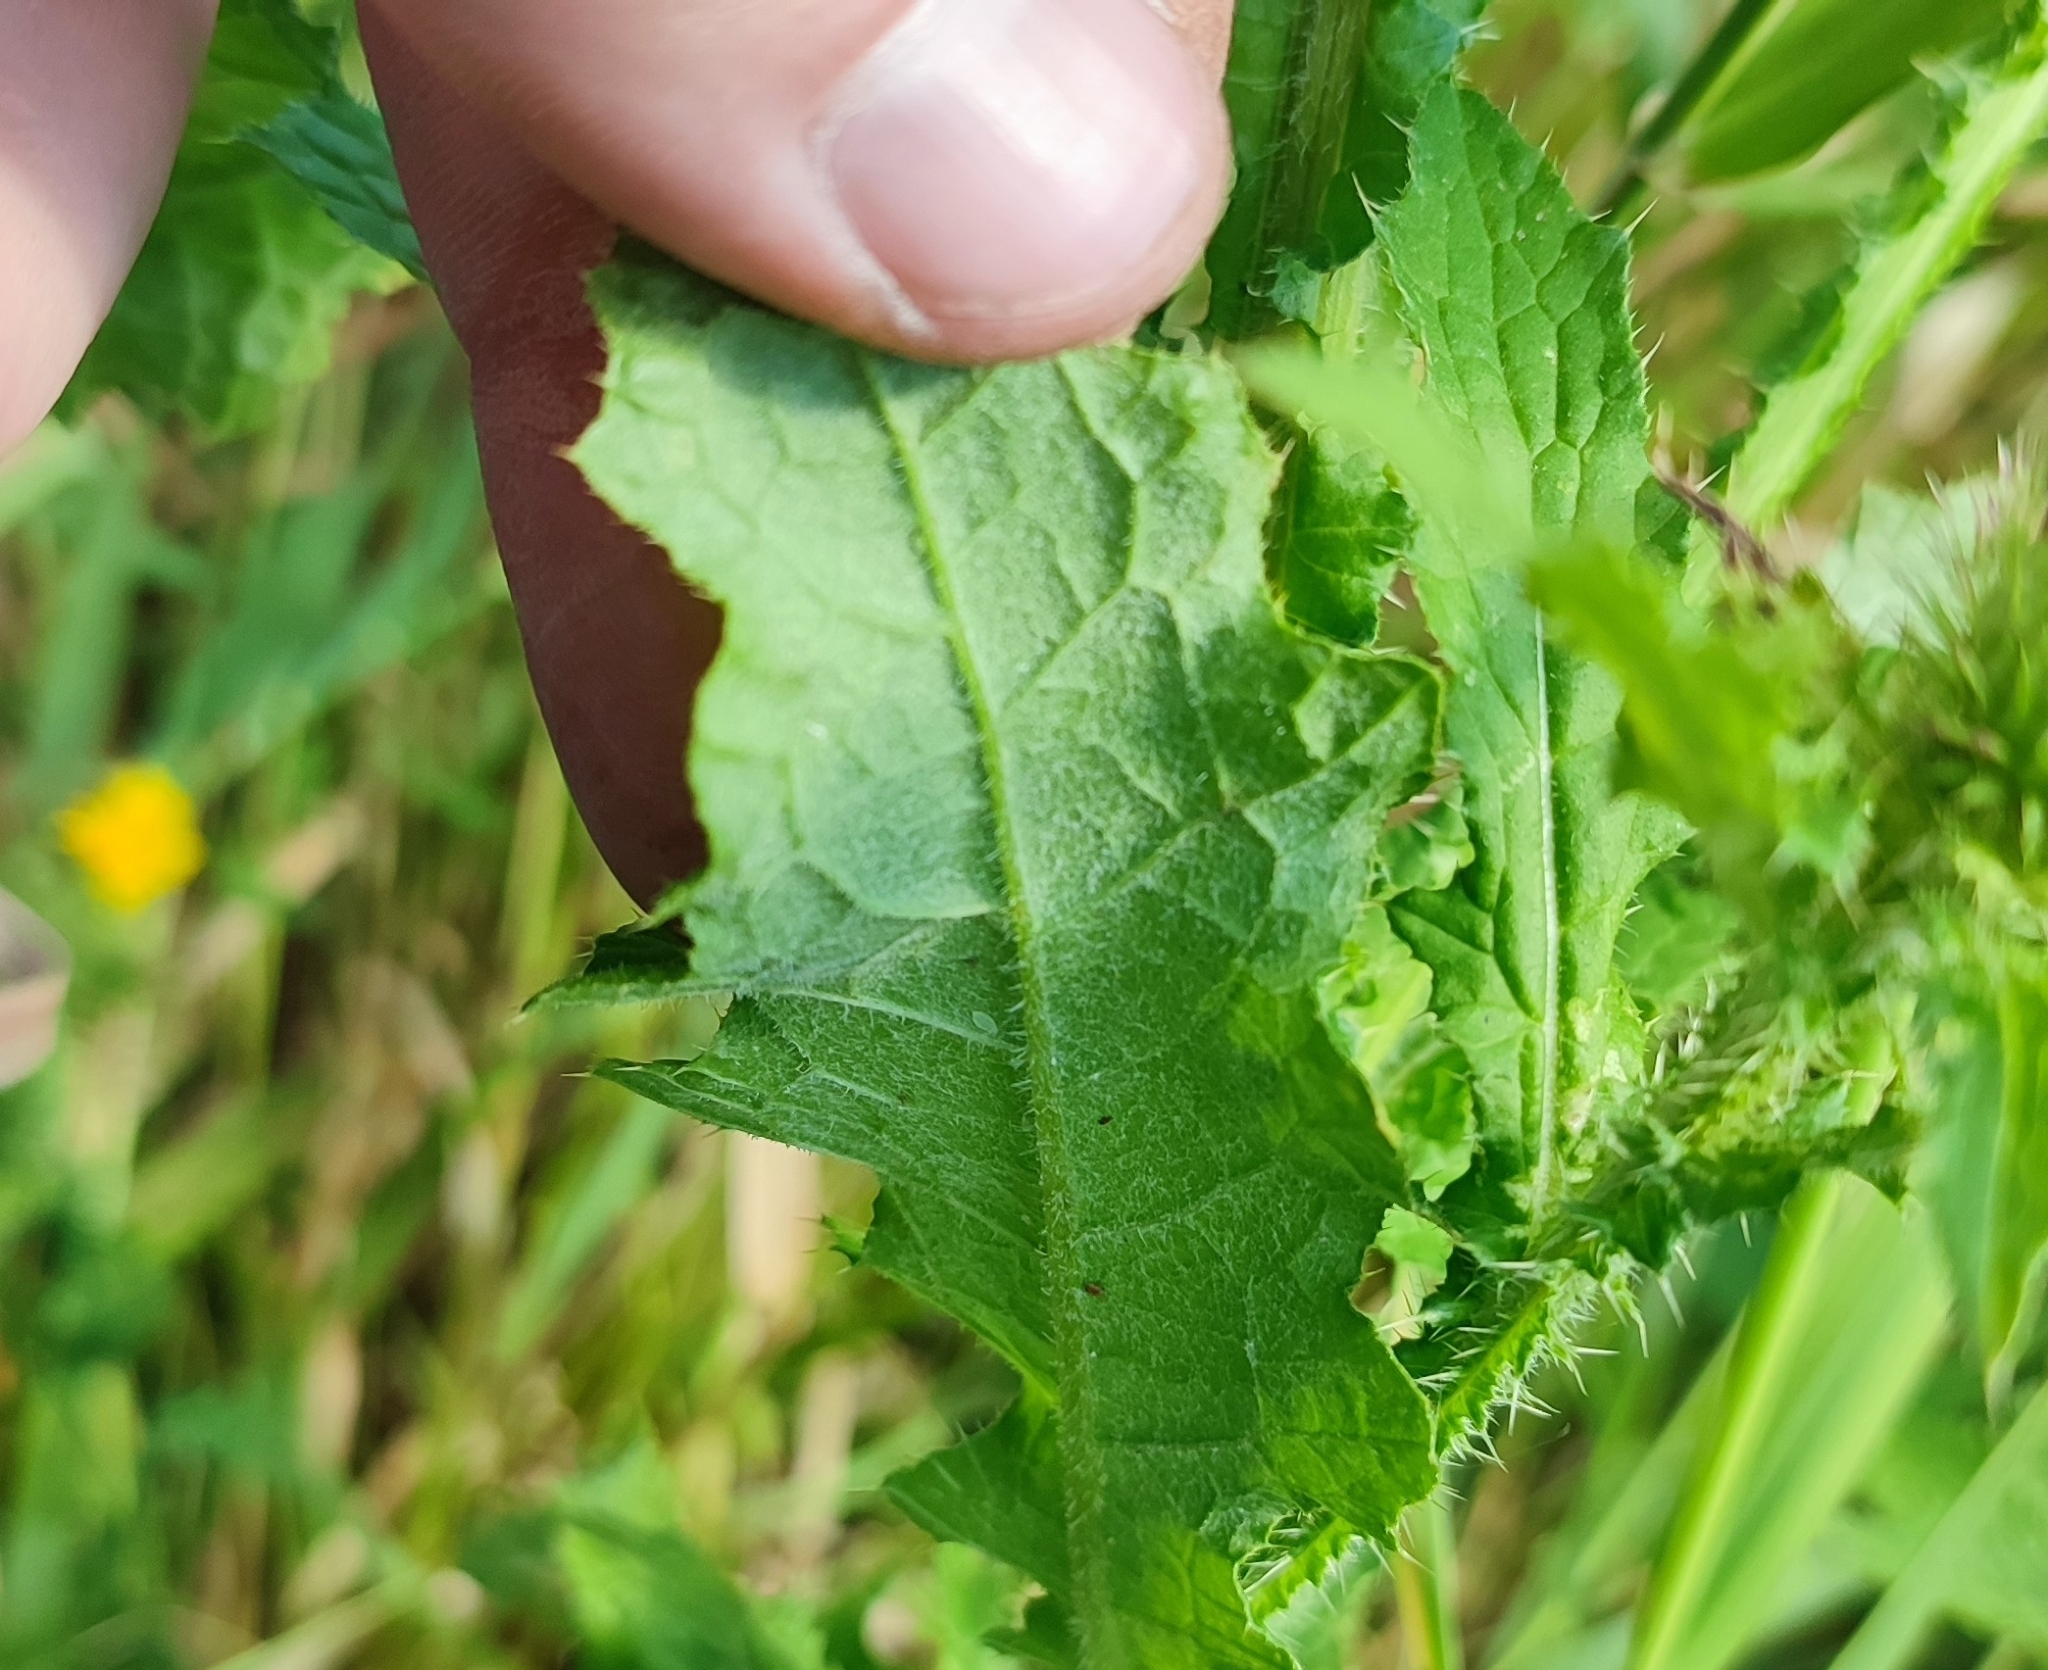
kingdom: Plantae
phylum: Tracheophyta
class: Magnoliopsida
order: Asterales
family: Asteraceae
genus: Carduus
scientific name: Carduus crispus
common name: Welted thistle
